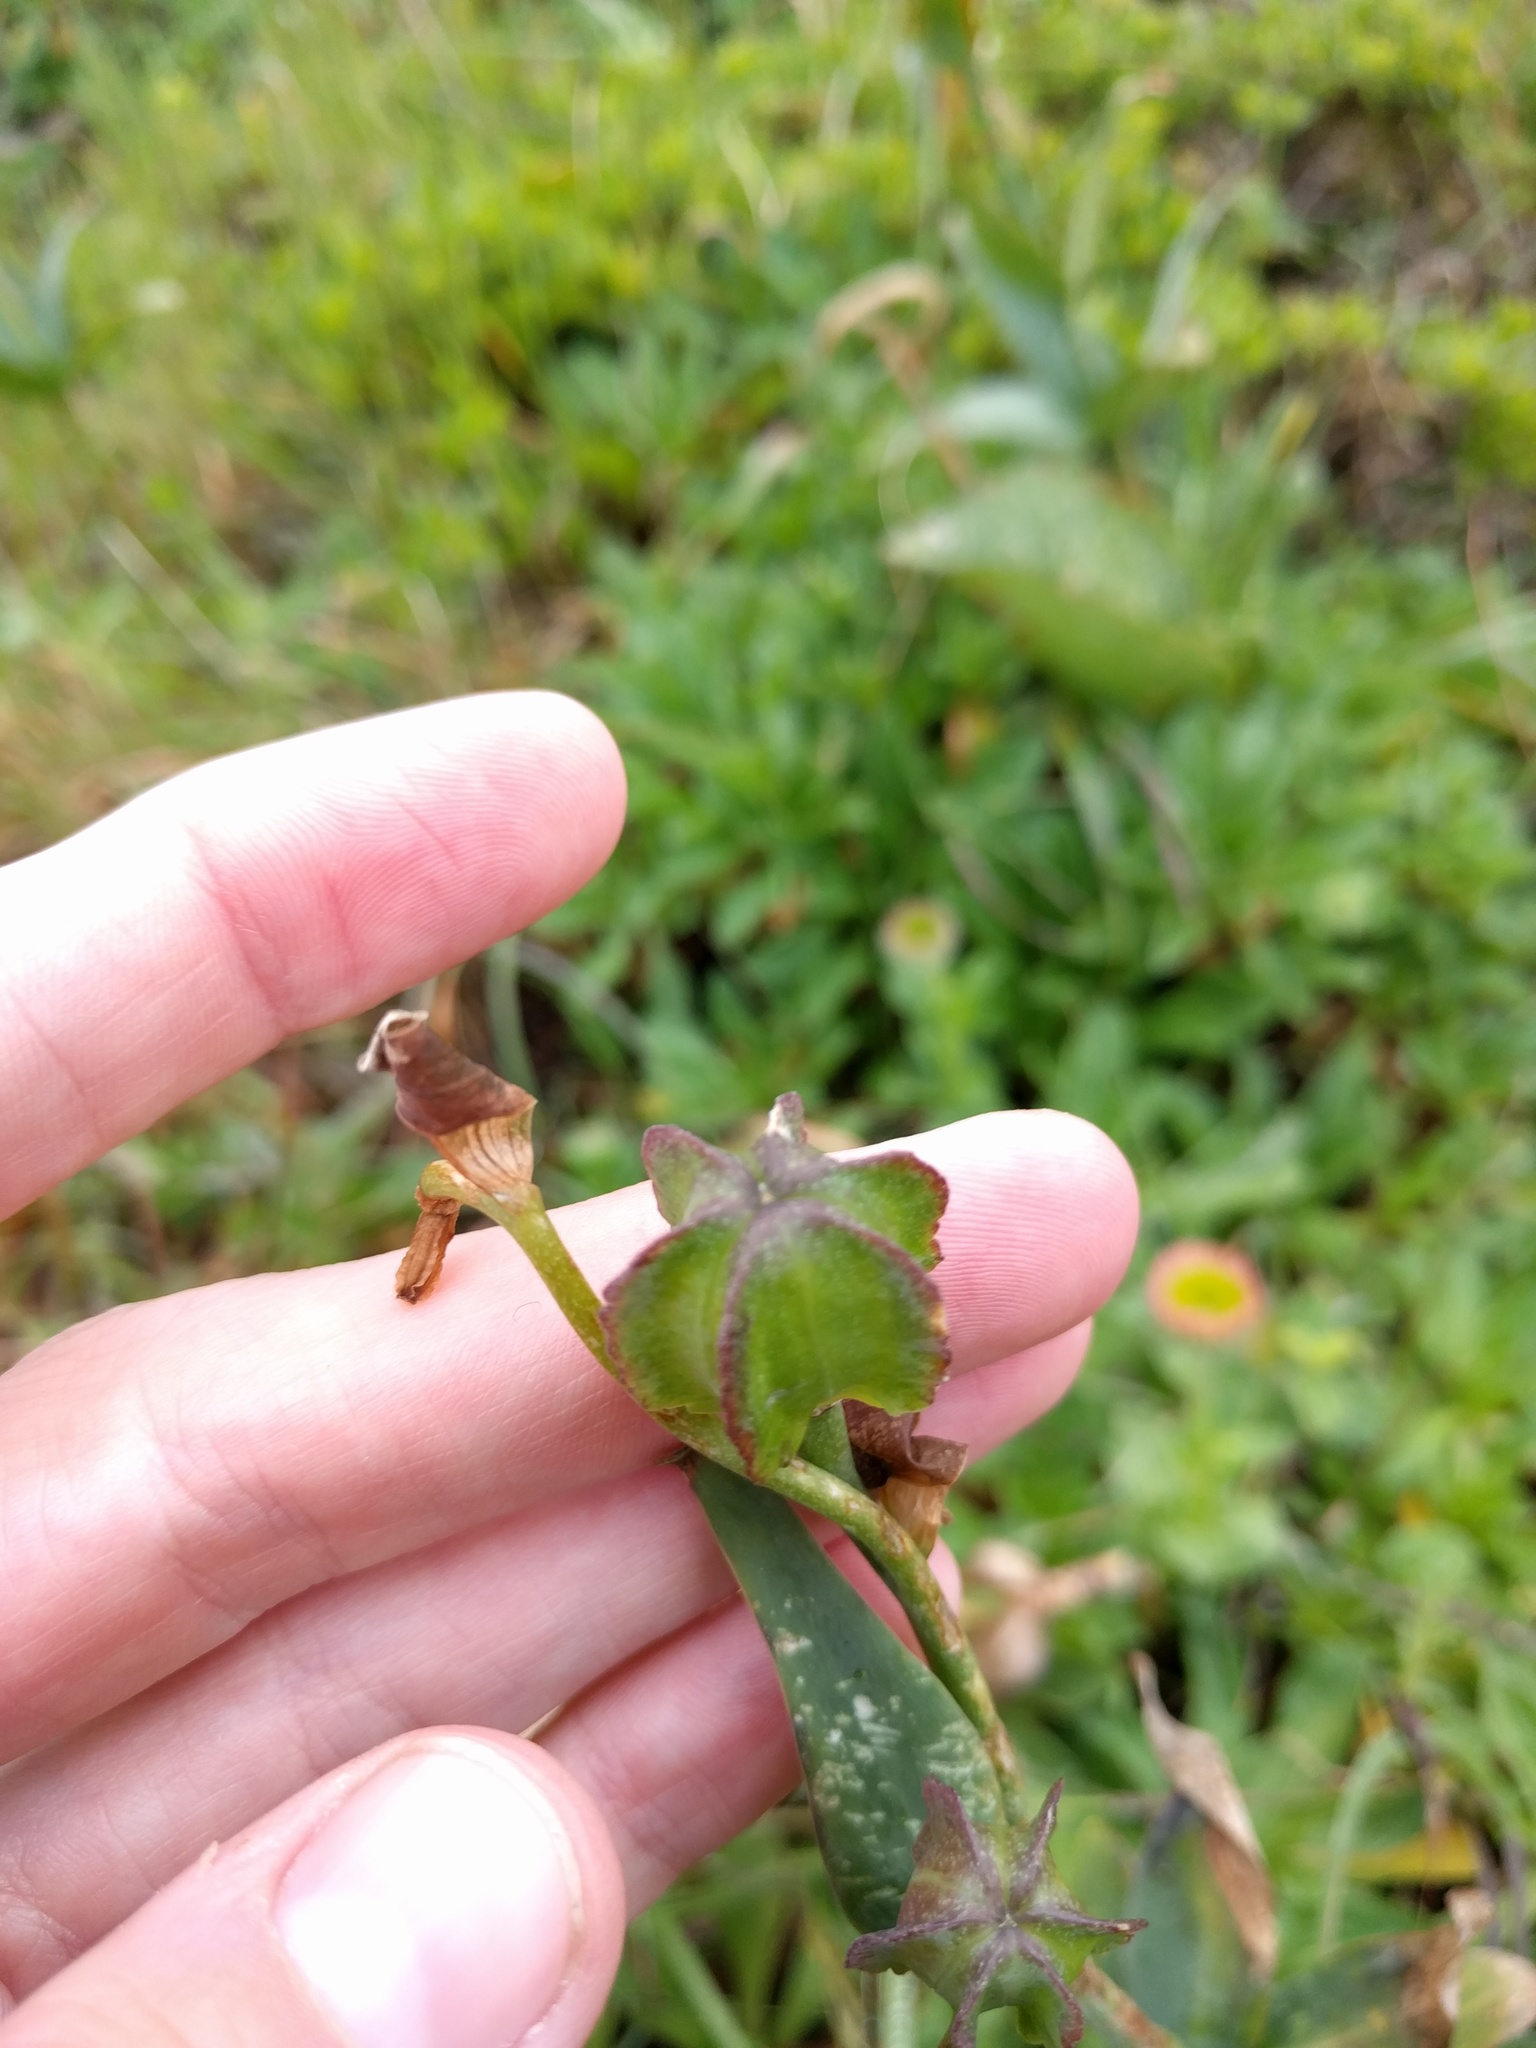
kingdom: Plantae
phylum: Tracheophyta
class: Liliopsida
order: Liliales
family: Liliaceae
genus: Fritillaria
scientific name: Fritillaria affinis
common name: Ojai fritillary
